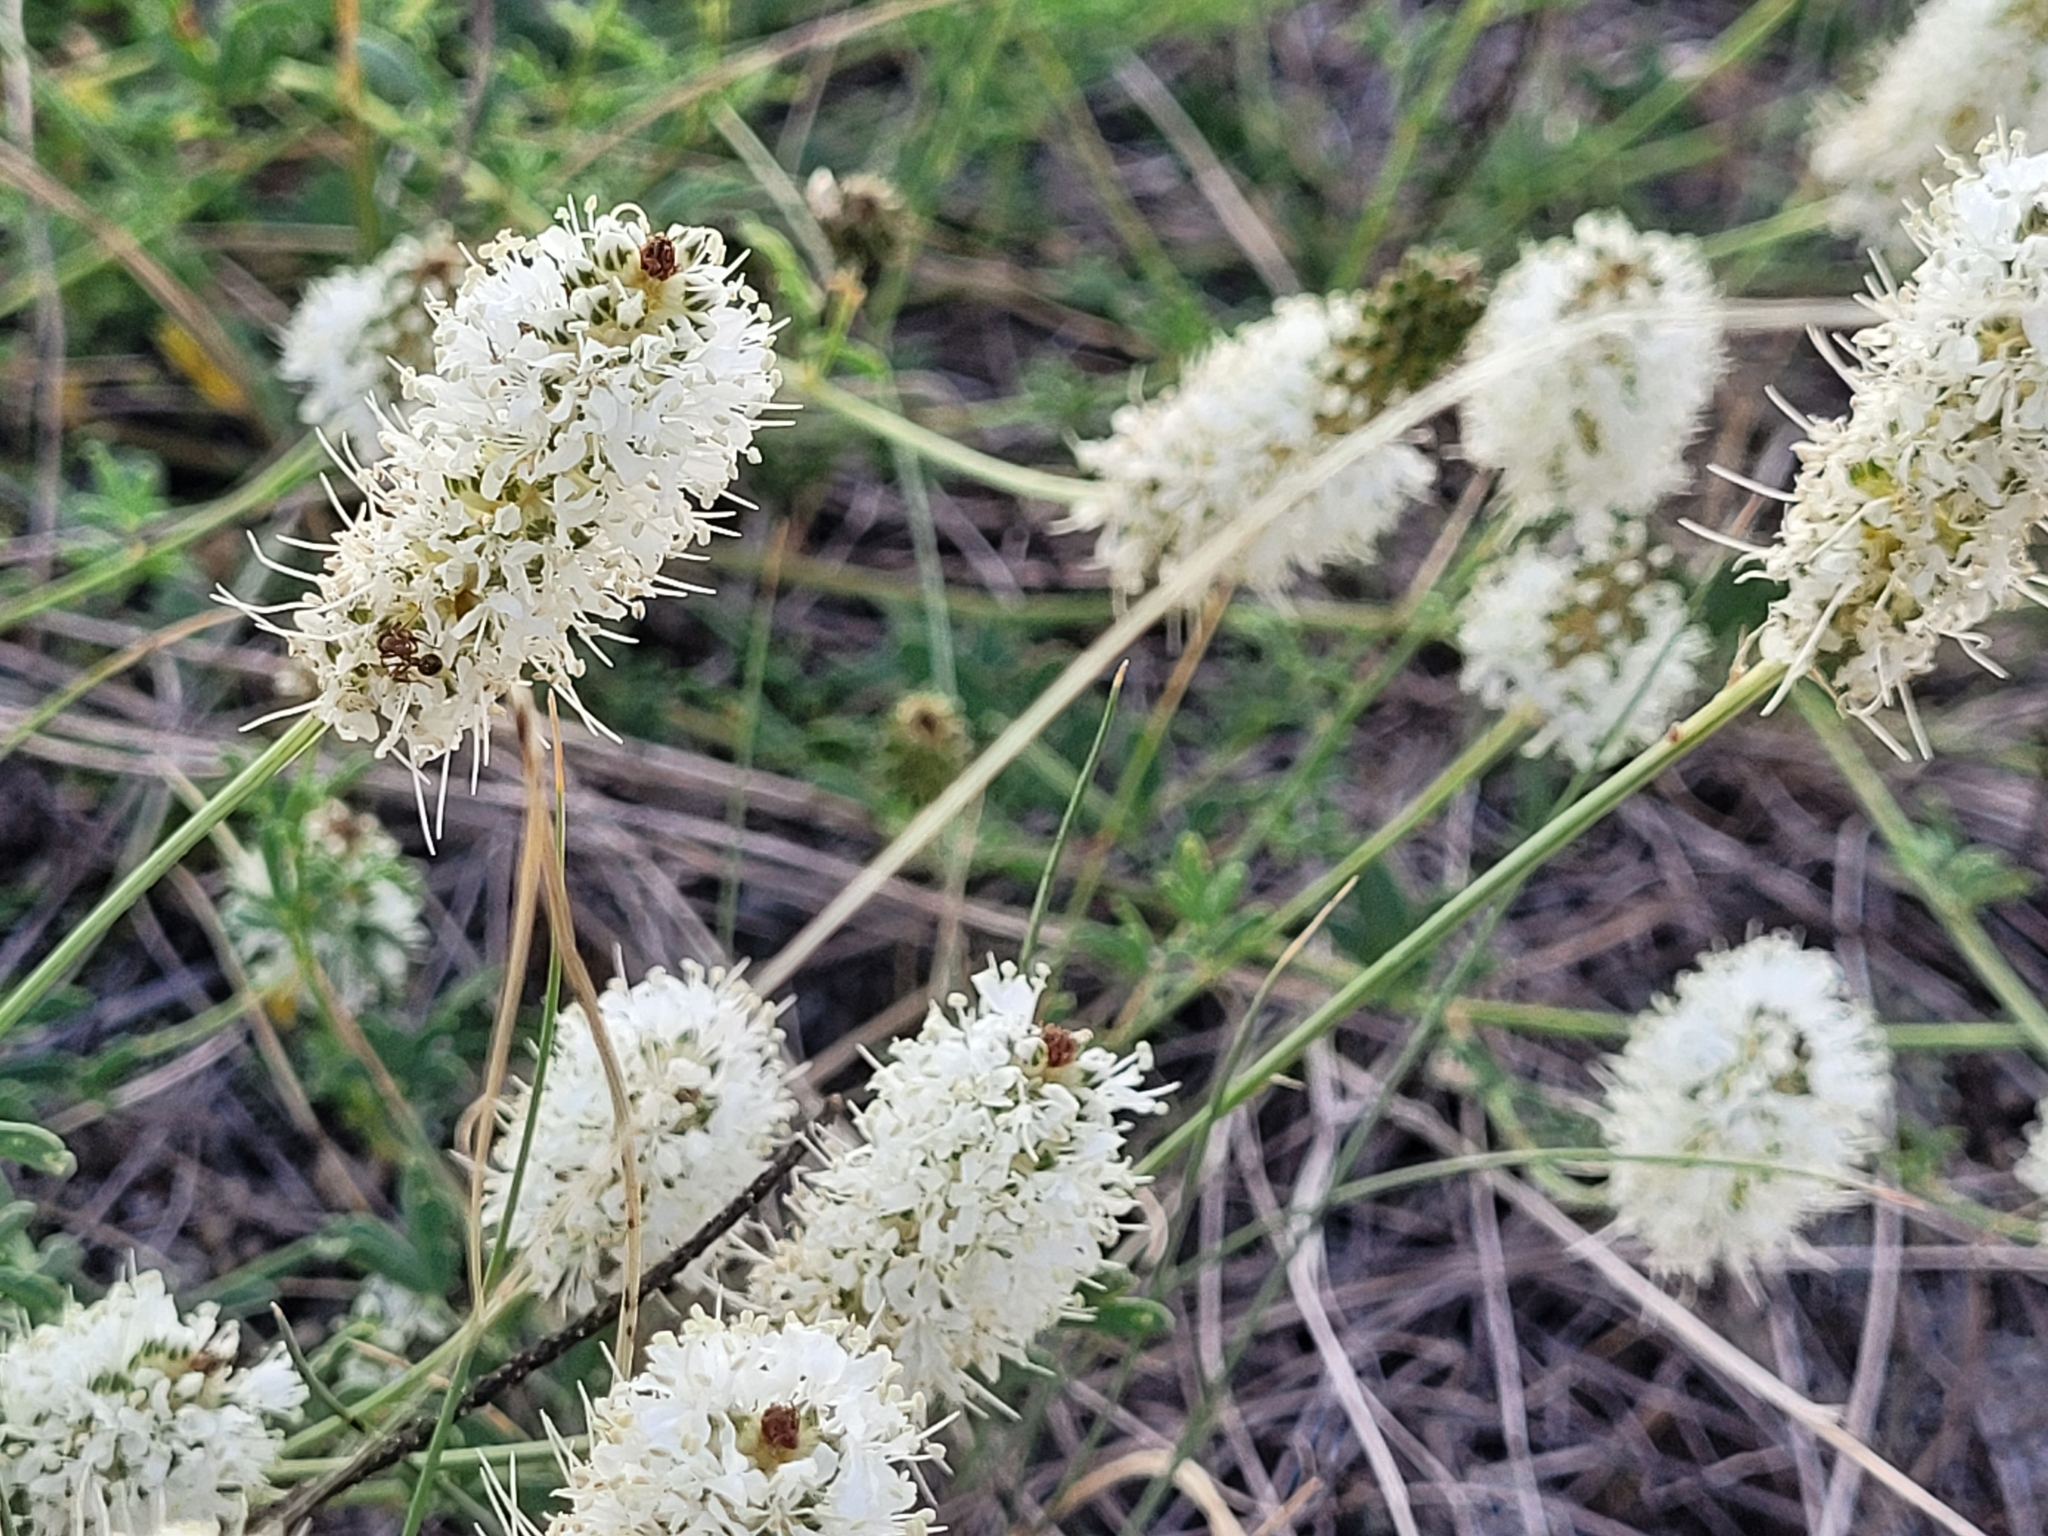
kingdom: Plantae
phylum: Tracheophyta
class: Magnoliopsida
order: Fabales
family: Fabaceae
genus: Dalea
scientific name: Dalea candida
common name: White prairie-clover
